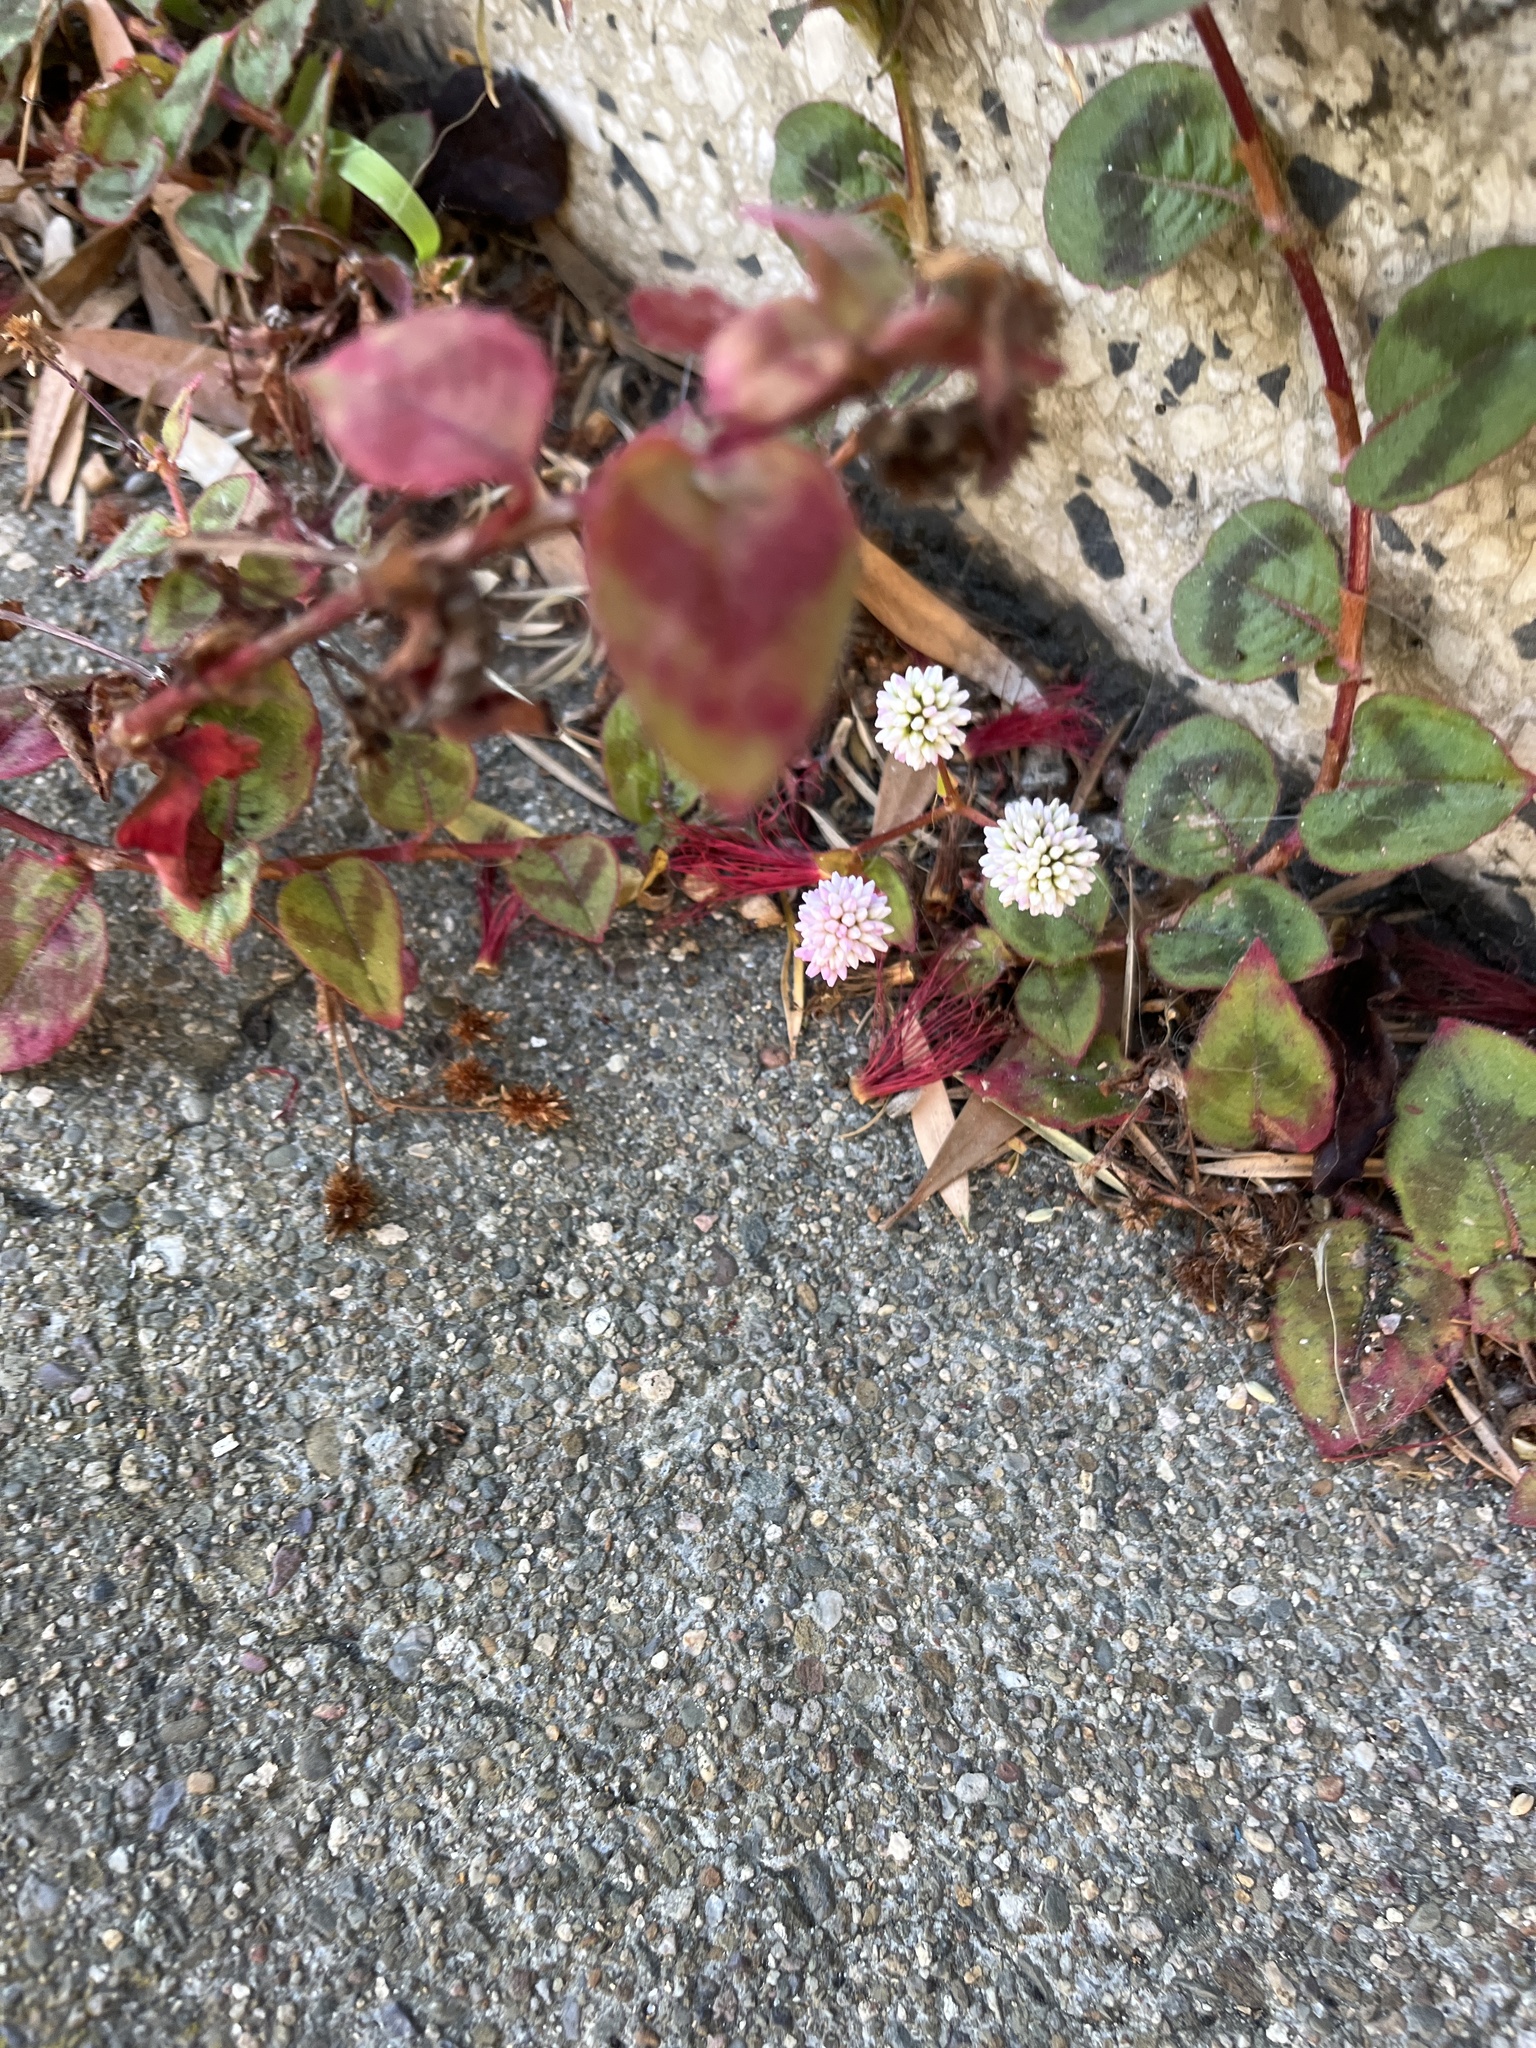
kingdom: Plantae
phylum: Tracheophyta
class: Magnoliopsida
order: Caryophyllales
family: Polygonaceae
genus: Persicaria
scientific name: Persicaria capitata
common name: Pinkhead smartweed
